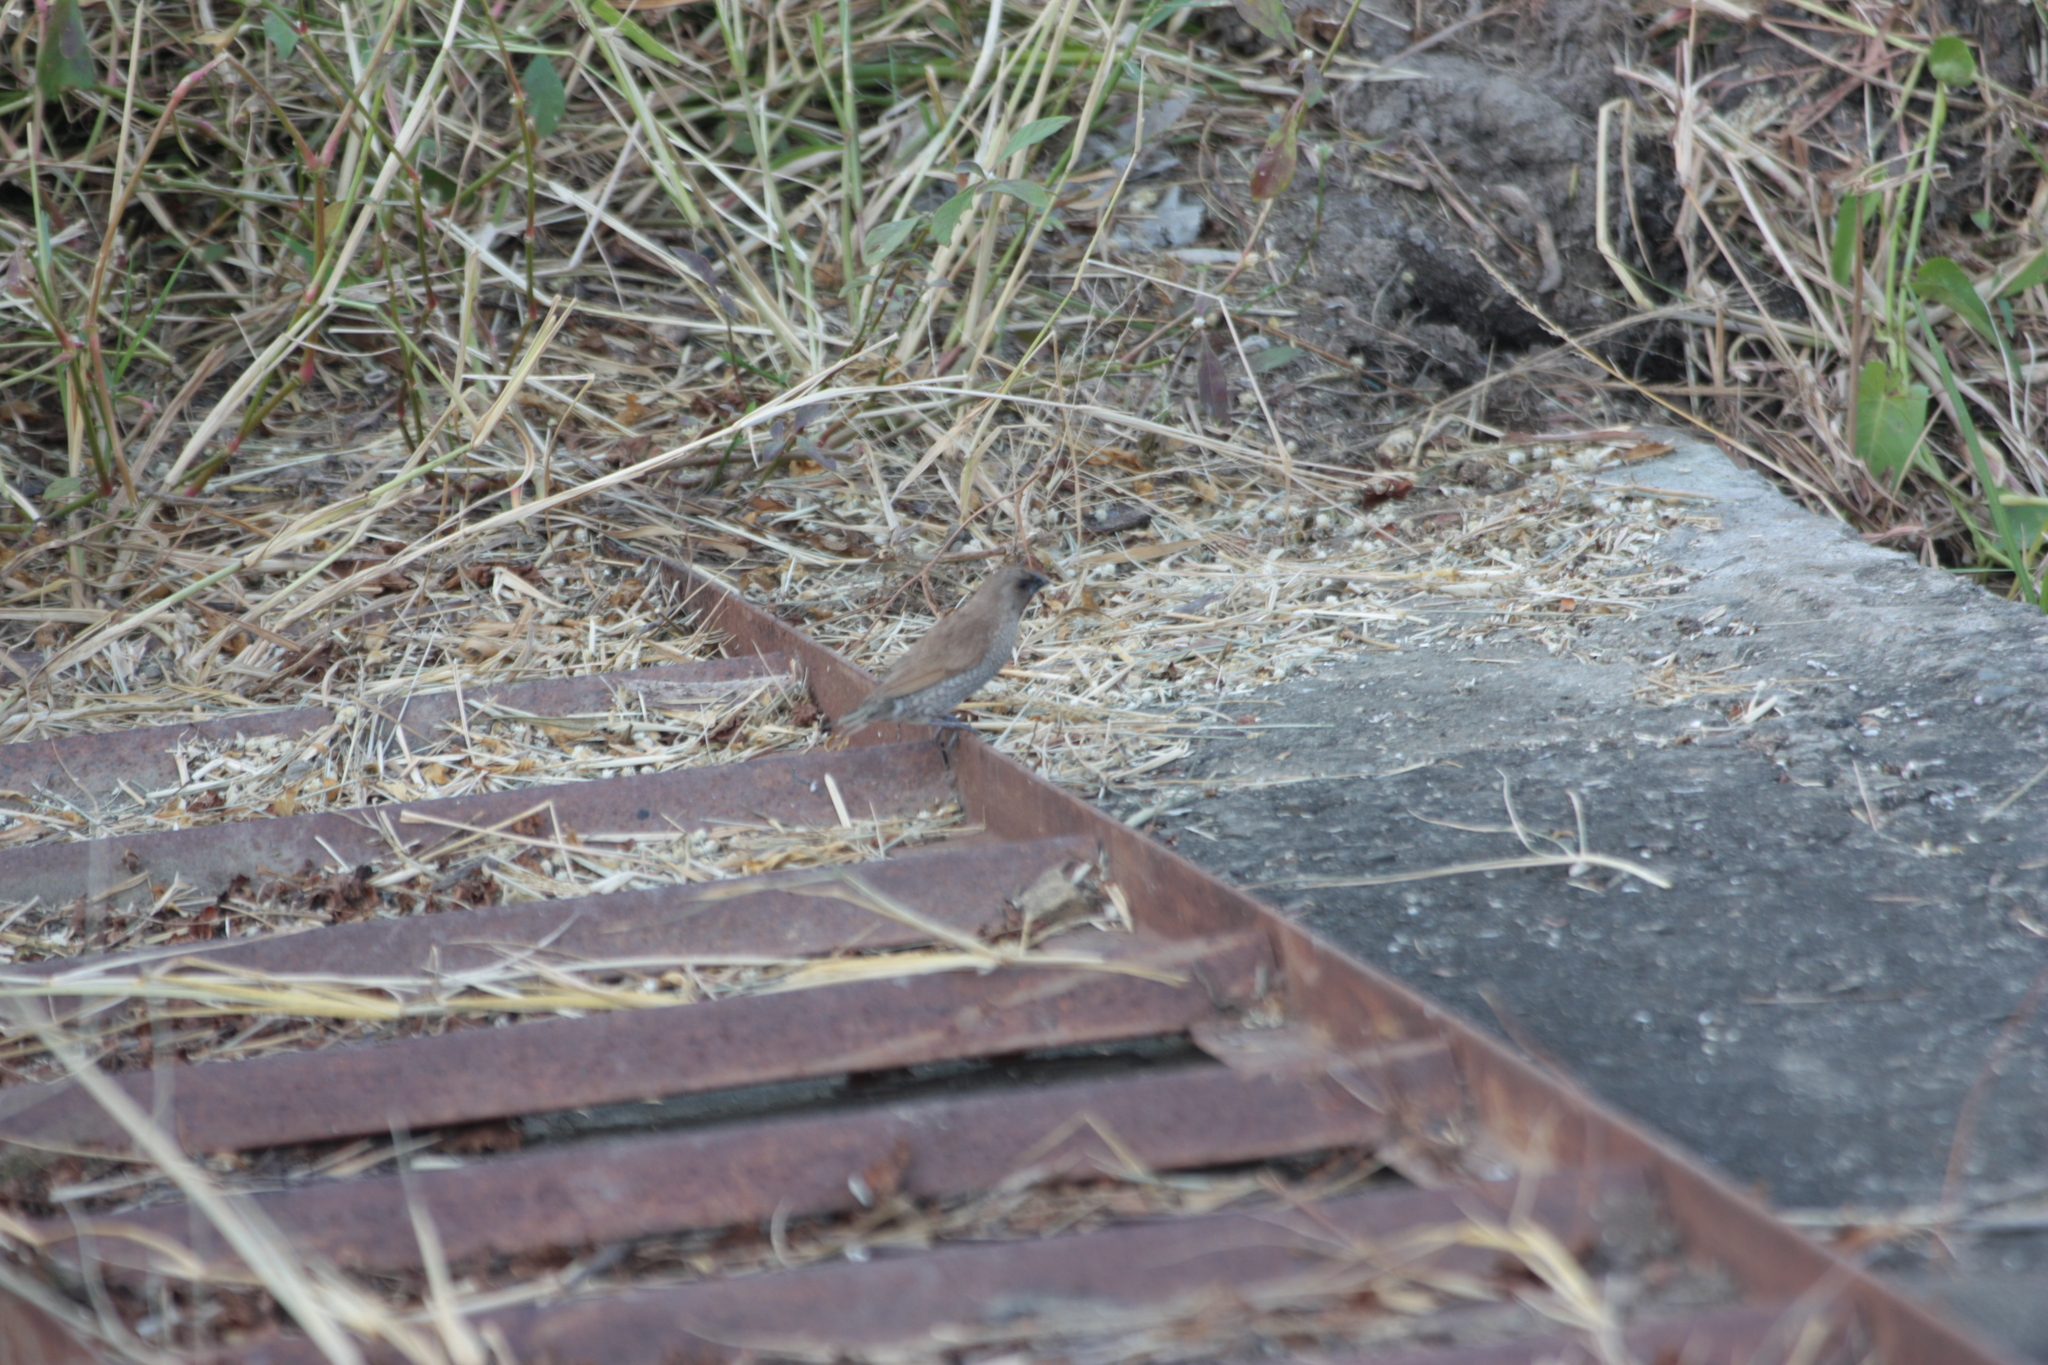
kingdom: Animalia
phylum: Chordata
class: Aves
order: Passeriformes
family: Estrildidae
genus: Lonchura
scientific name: Lonchura punctulata
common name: Scaly-breasted munia
